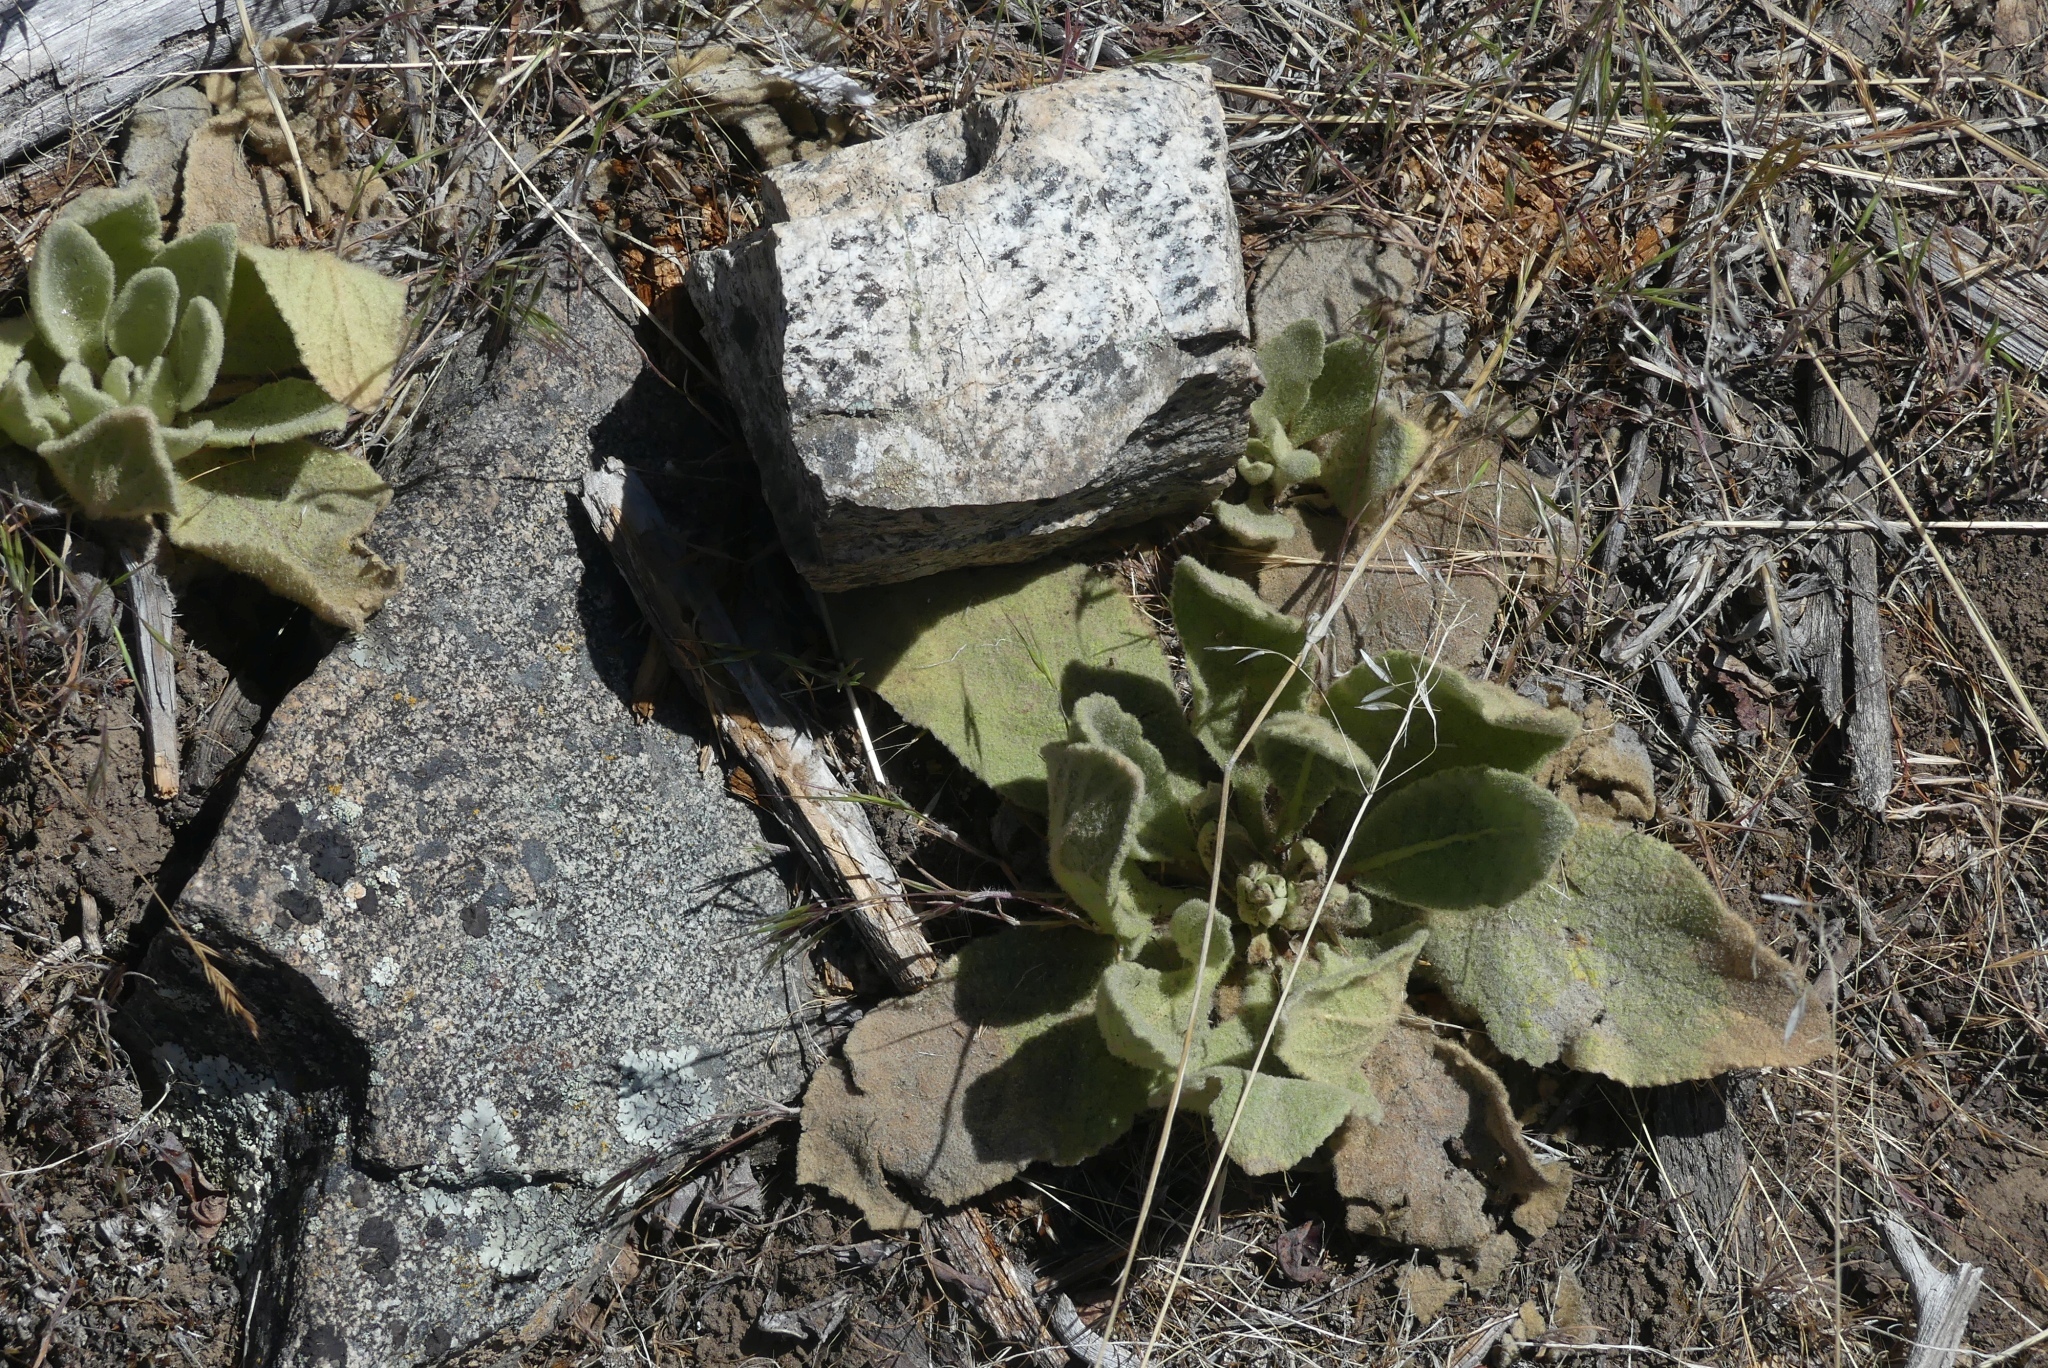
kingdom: Plantae
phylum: Tracheophyta
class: Magnoliopsida
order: Lamiales
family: Scrophulariaceae
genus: Verbascum
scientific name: Verbascum thapsus
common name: Common mullein
